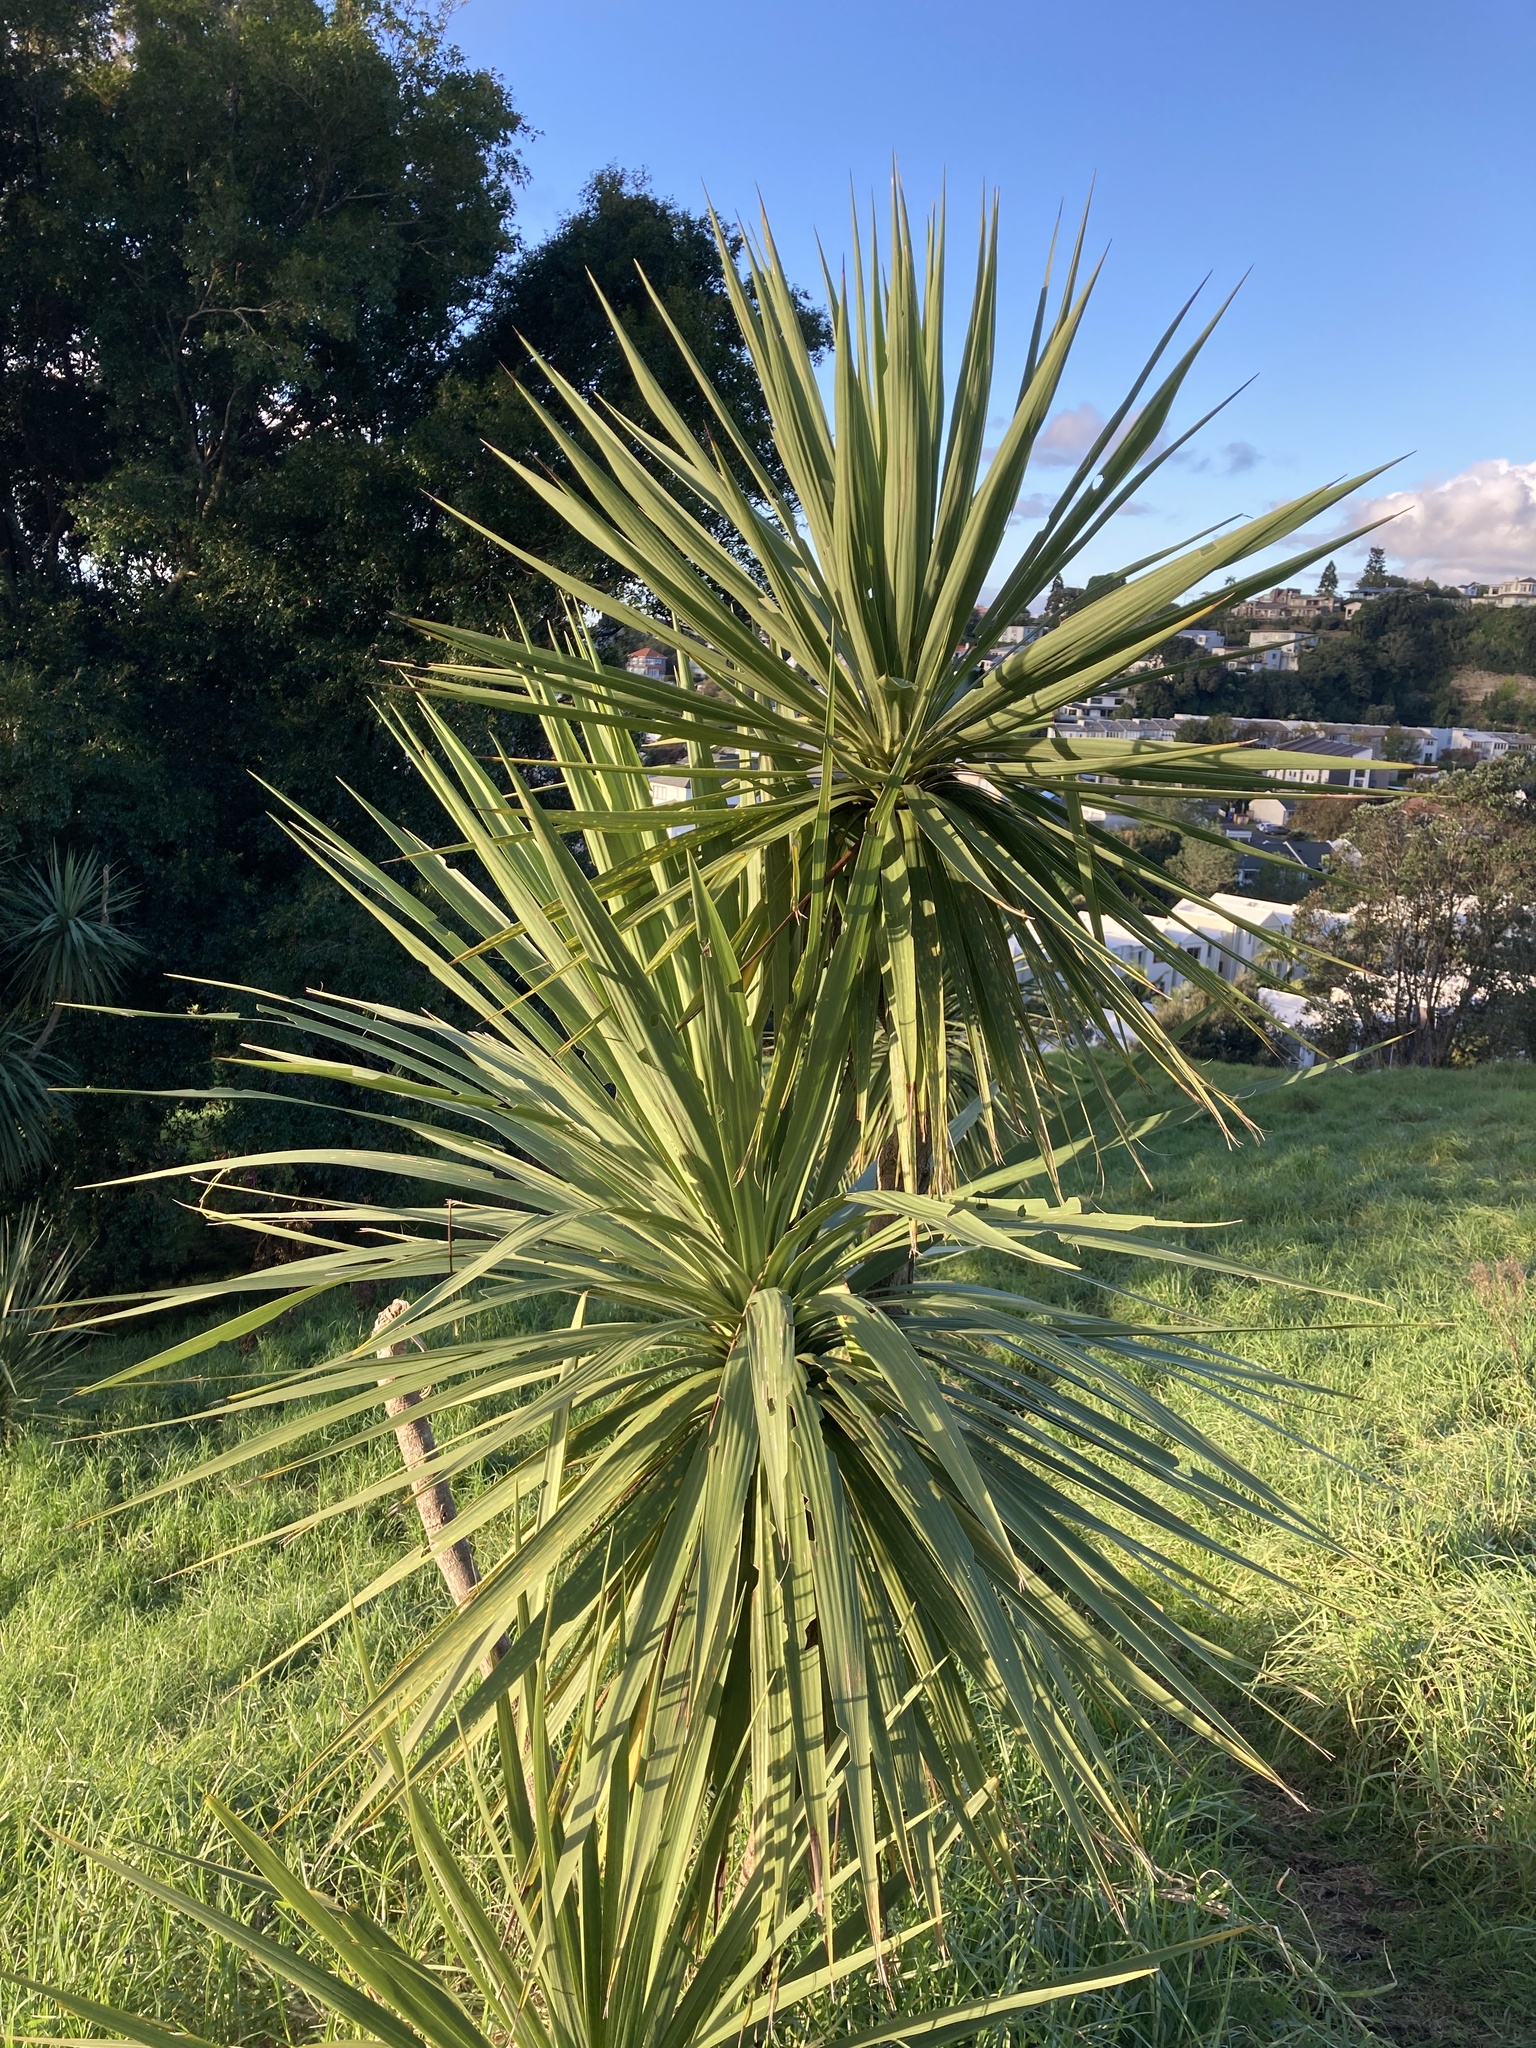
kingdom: Plantae
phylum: Tracheophyta
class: Liliopsida
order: Asparagales
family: Asparagaceae
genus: Cordyline
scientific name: Cordyline australis
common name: Cabbage-palm
